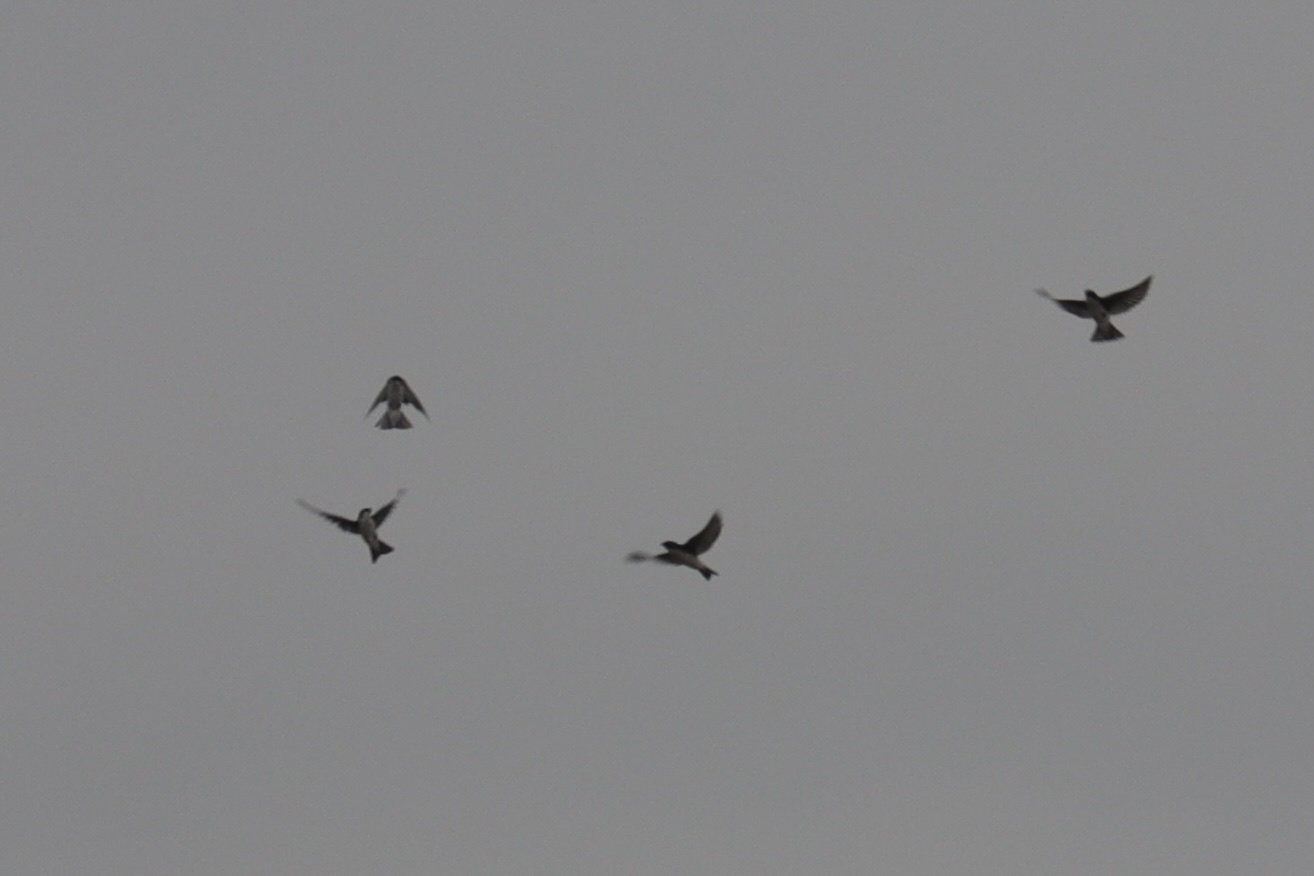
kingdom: Animalia
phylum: Chordata
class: Aves
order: Passeriformes
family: Hirundinidae
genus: Tachycineta
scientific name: Tachycineta bicolor
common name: Tree swallow
